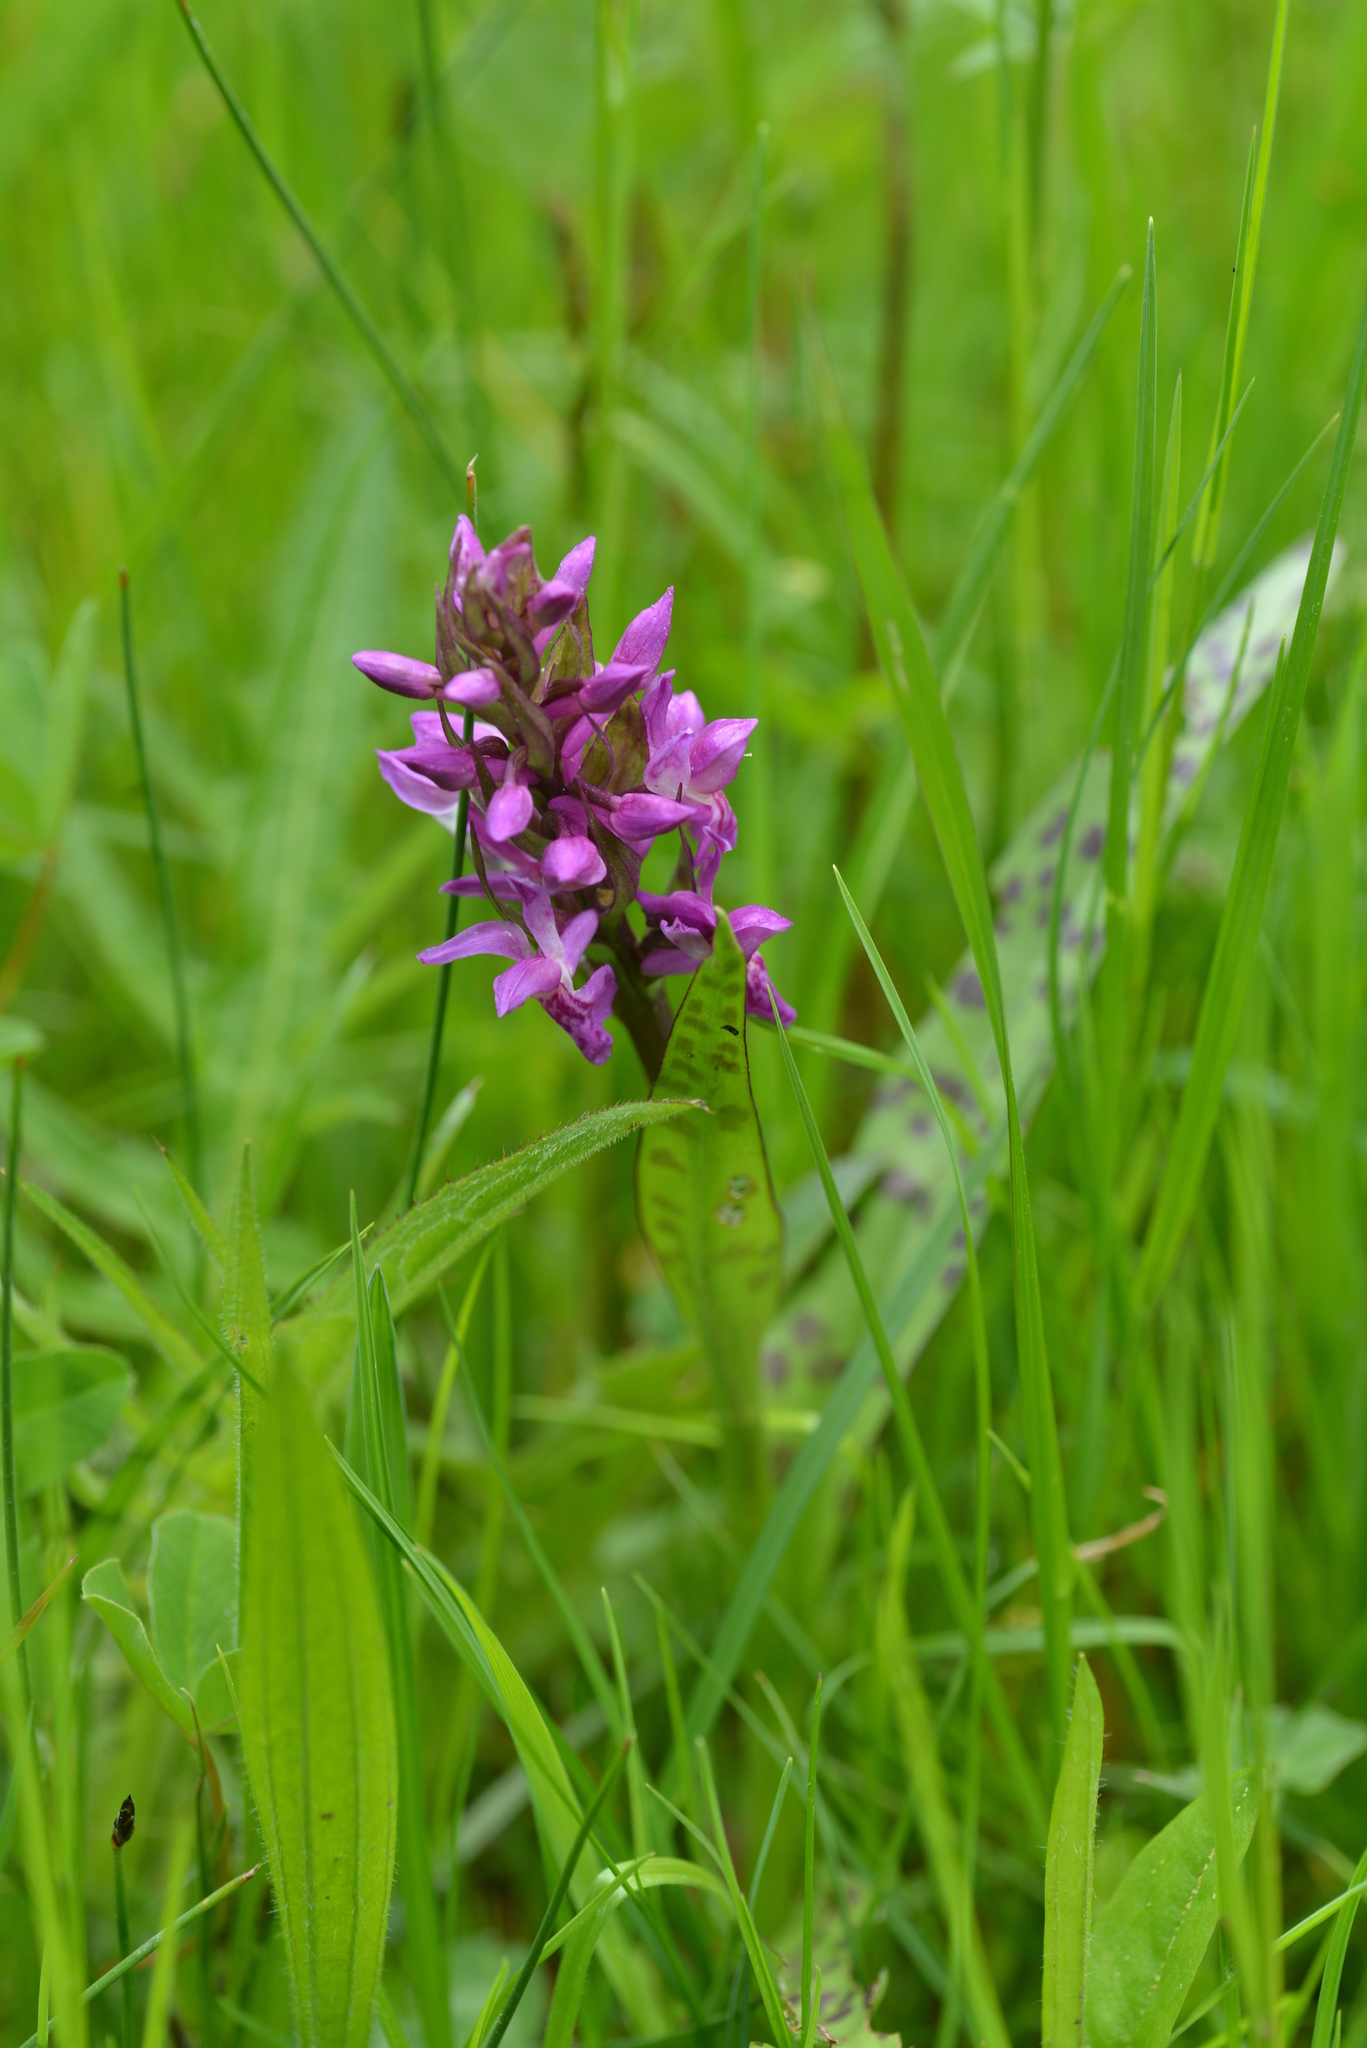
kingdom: Plantae
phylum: Tracheophyta
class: Liliopsida
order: Asparagales
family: Orchidaceae
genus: Dactylorhiza
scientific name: Dactylorhiza majalis
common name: Marsh orchid
